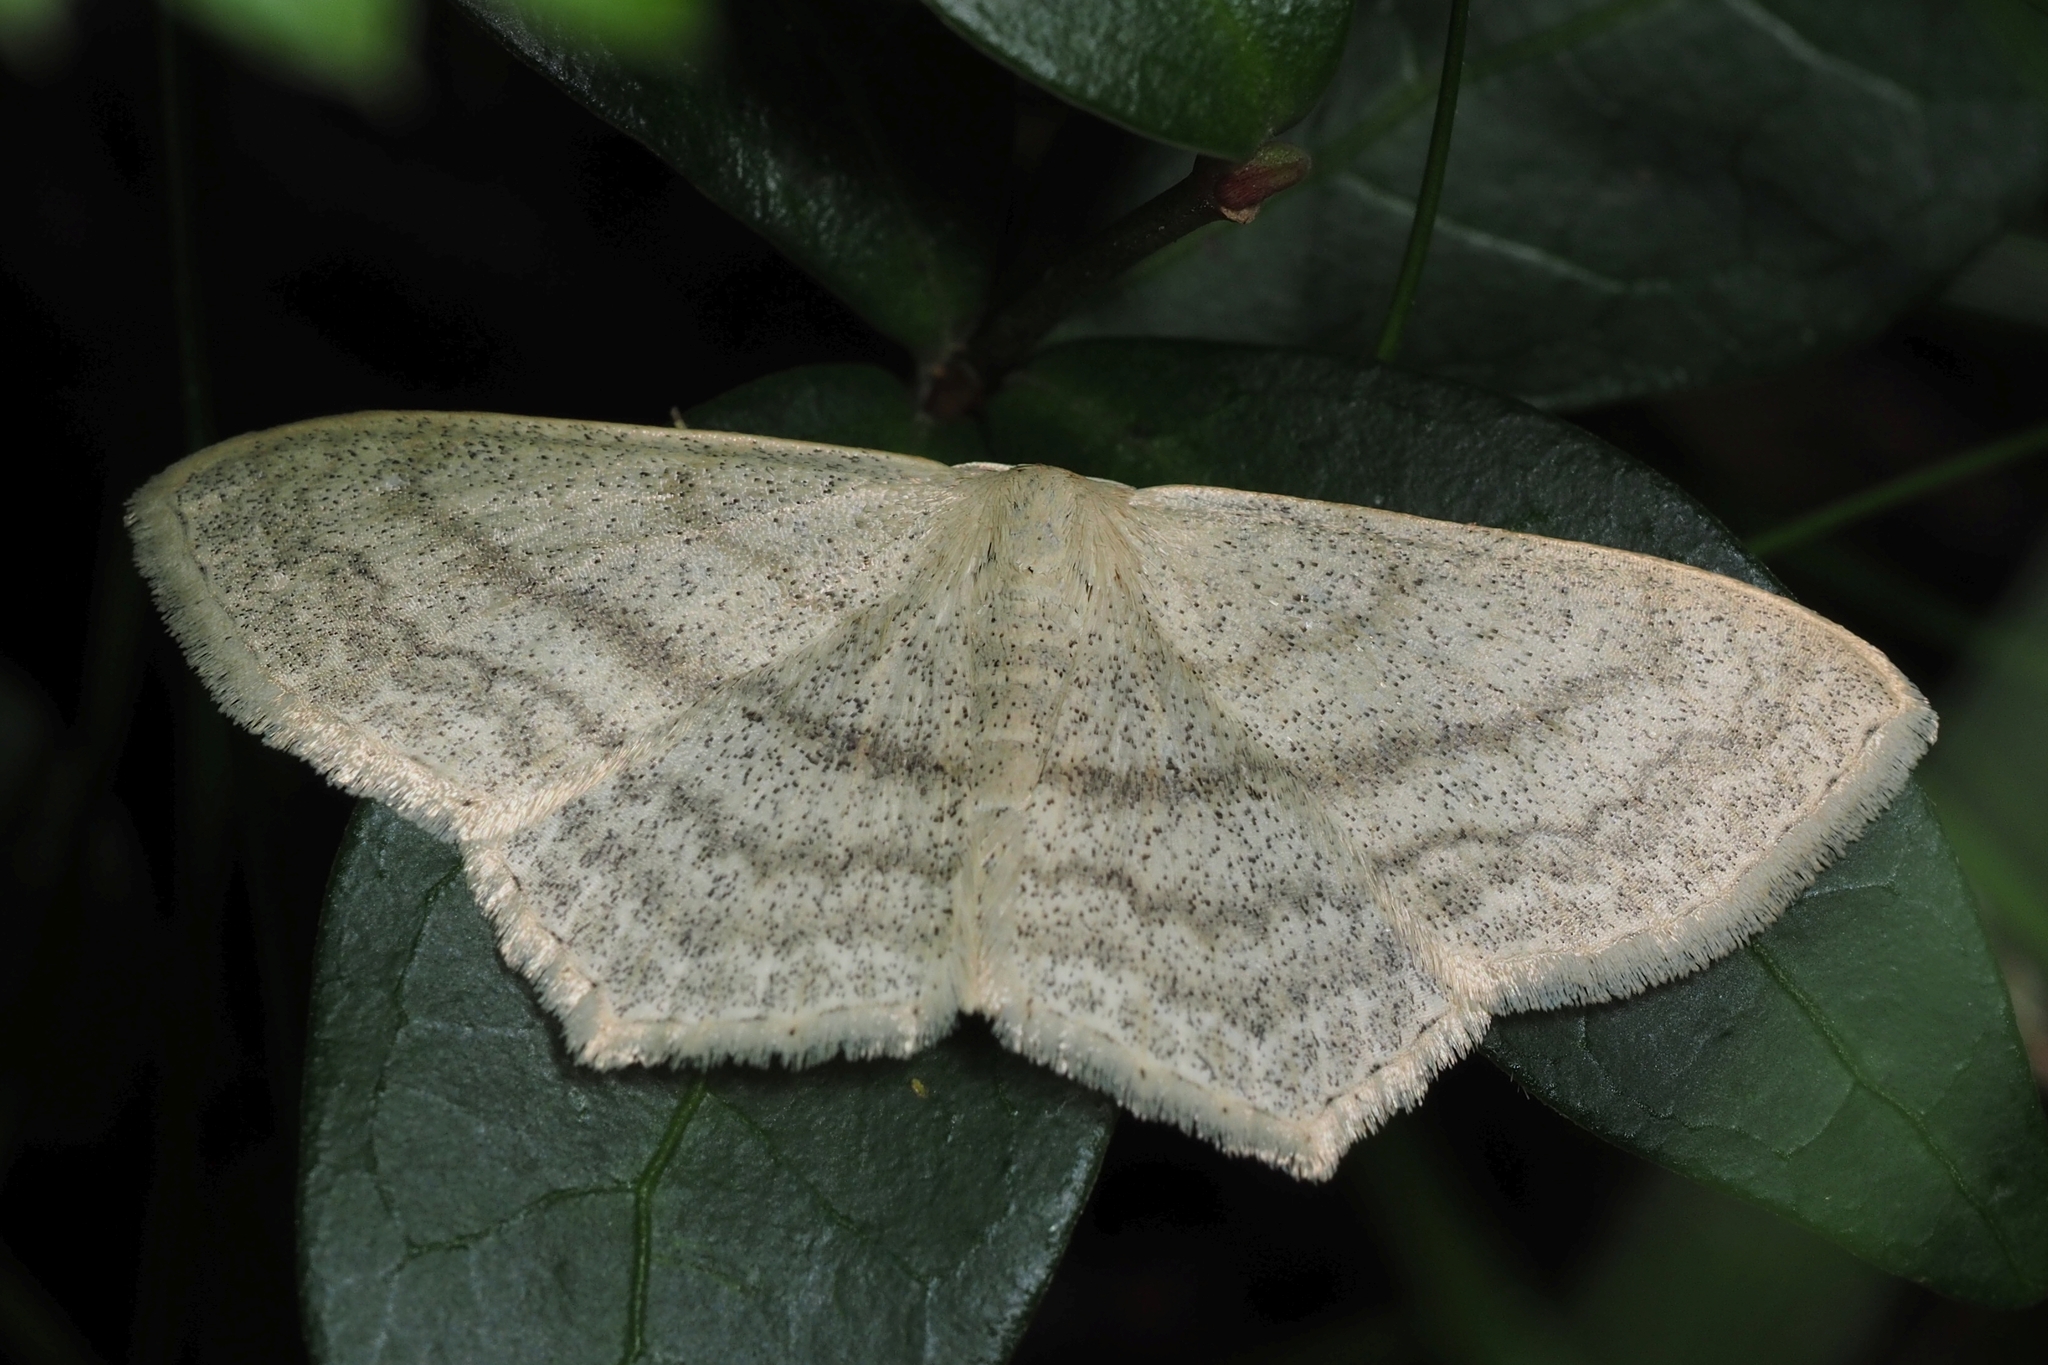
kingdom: Animalia
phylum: Arthropoda
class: Insecta
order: Lepidoptera
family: Geometridae
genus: Scopula
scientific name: Scopula nigropunctata
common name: Sub-angled wave
